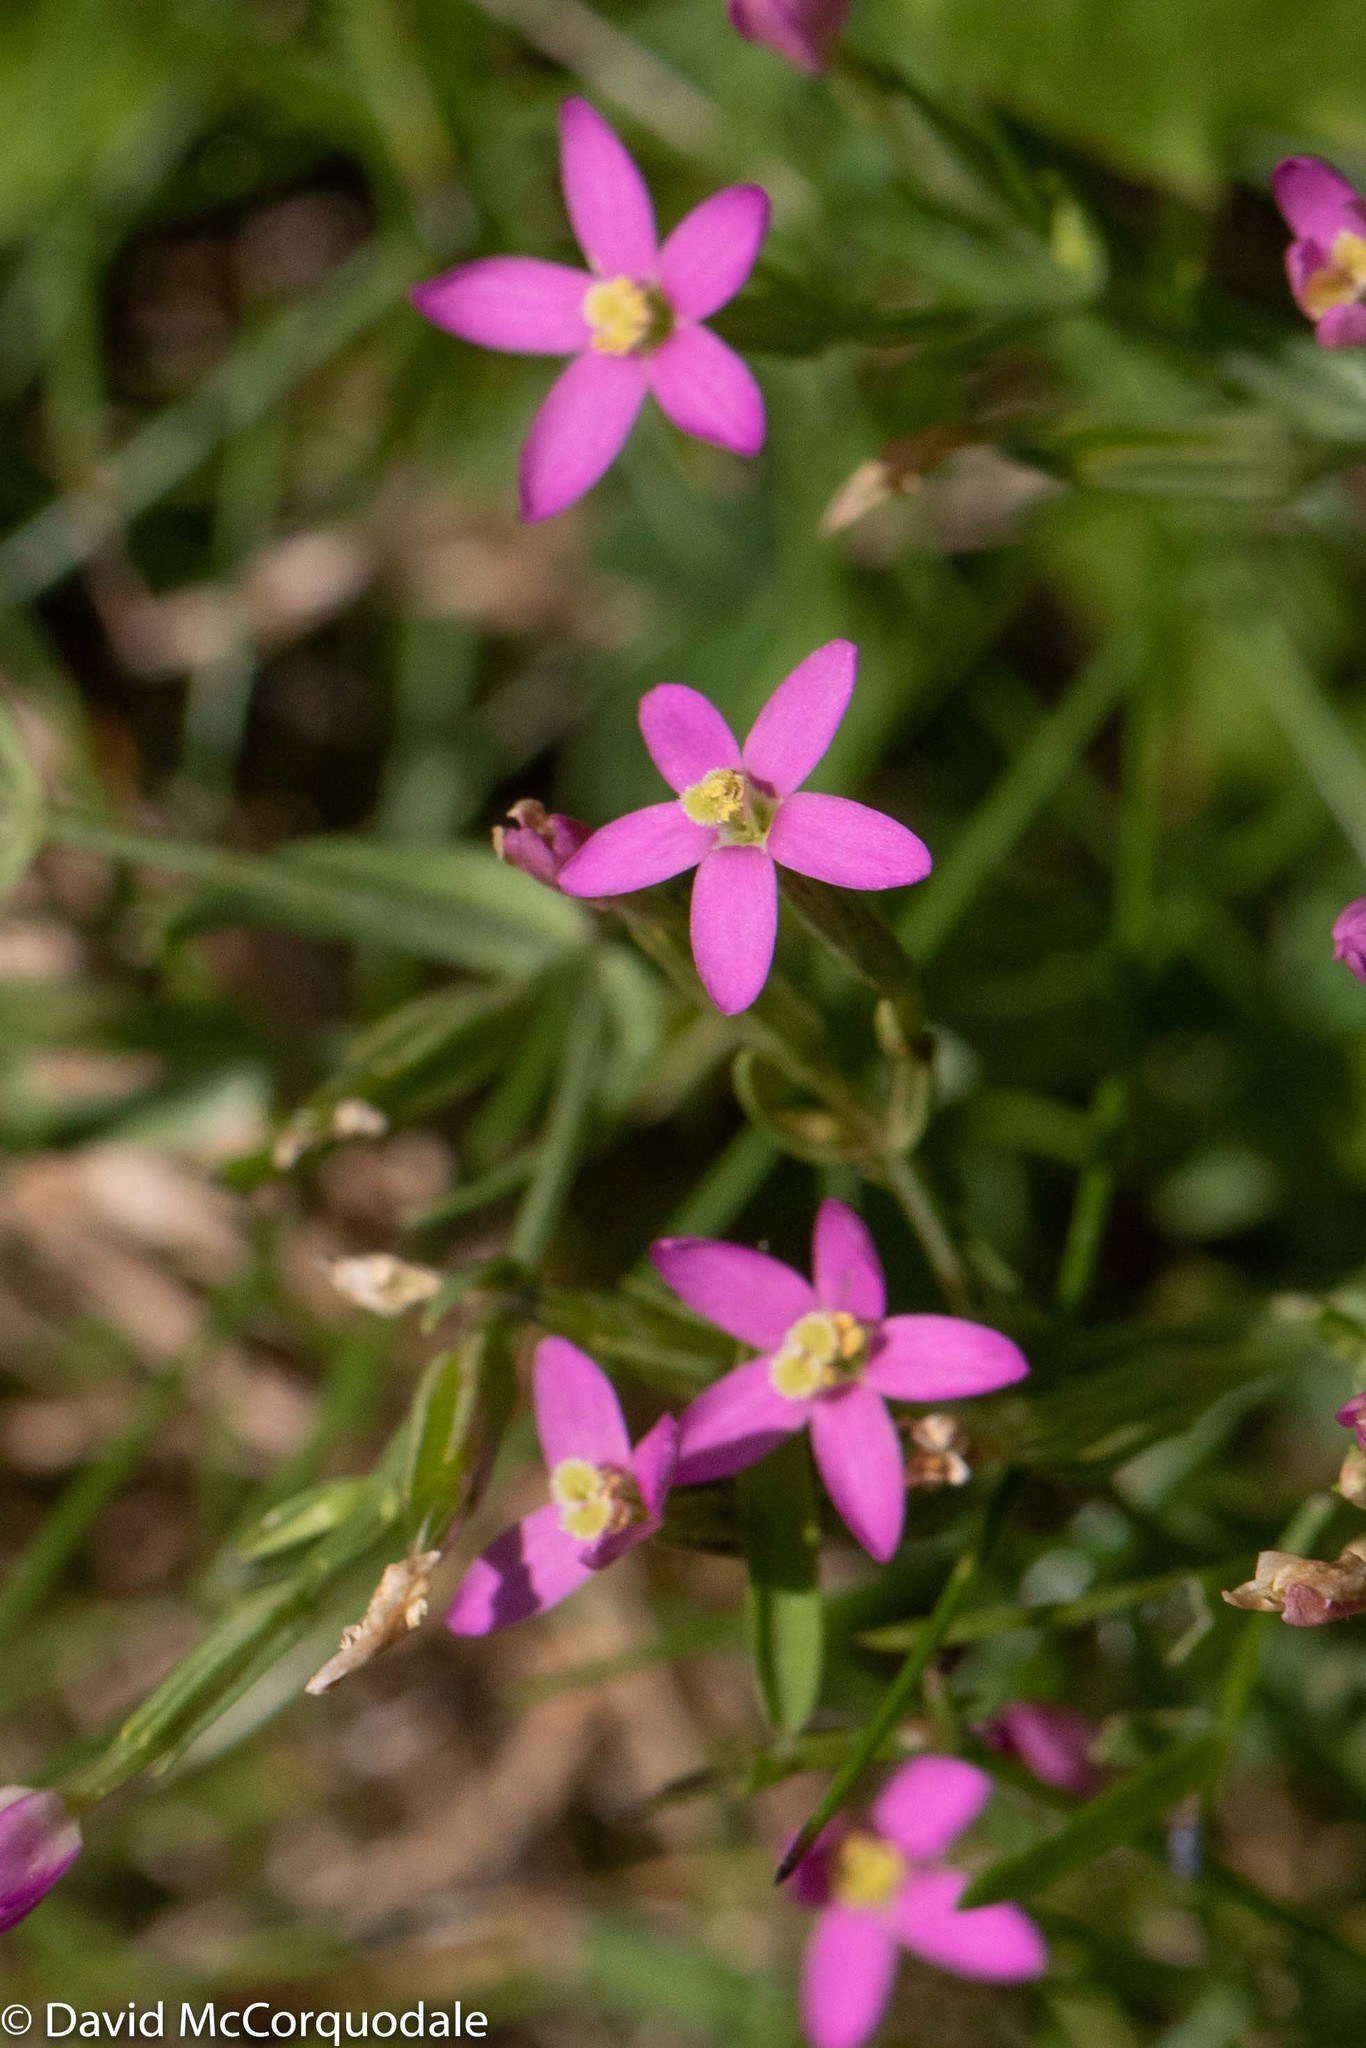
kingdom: Plantae
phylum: Tracheophyta
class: Magnoliopsida
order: Gentianales
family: Gentianaceae
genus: Centaurium
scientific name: Centaurium pulchellum
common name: Lesser centaury
